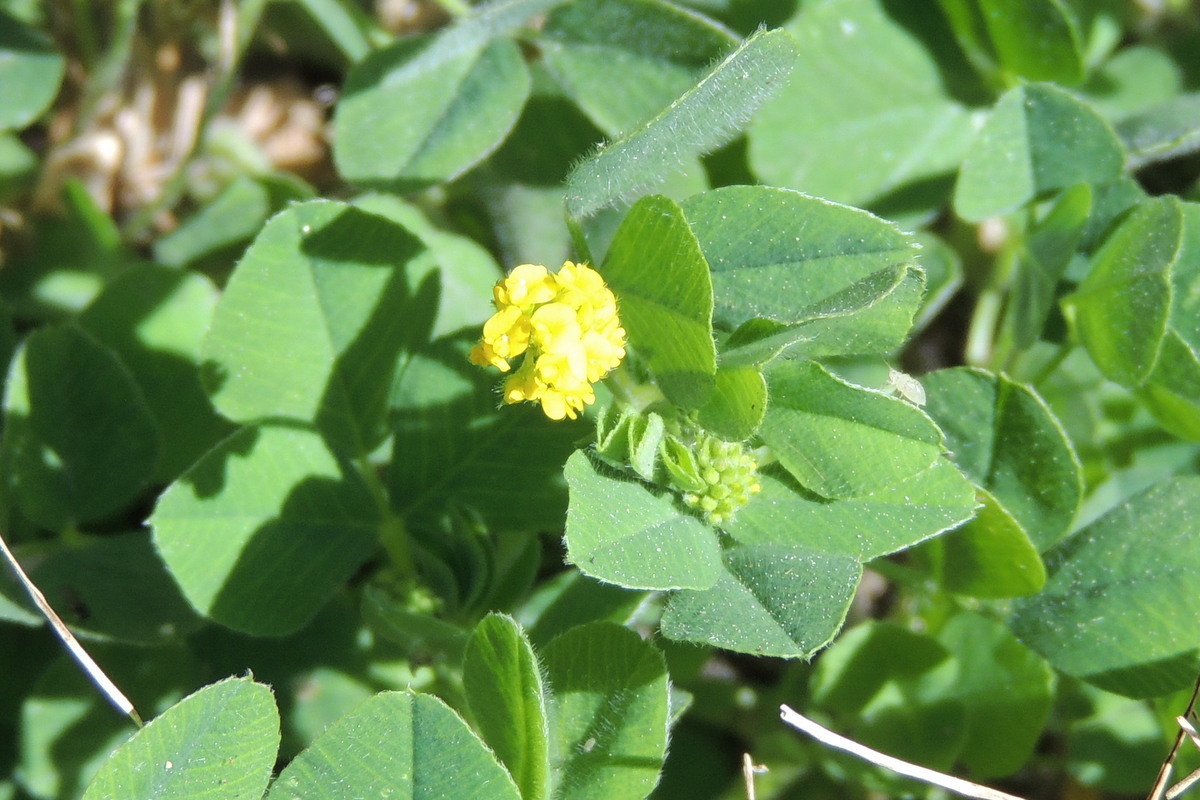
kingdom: Plantae
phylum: Tracheophyta
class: Magnoliopsida
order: Fabales
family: Fabaceae
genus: Medicago
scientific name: Medicago lupulina
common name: Black medick
